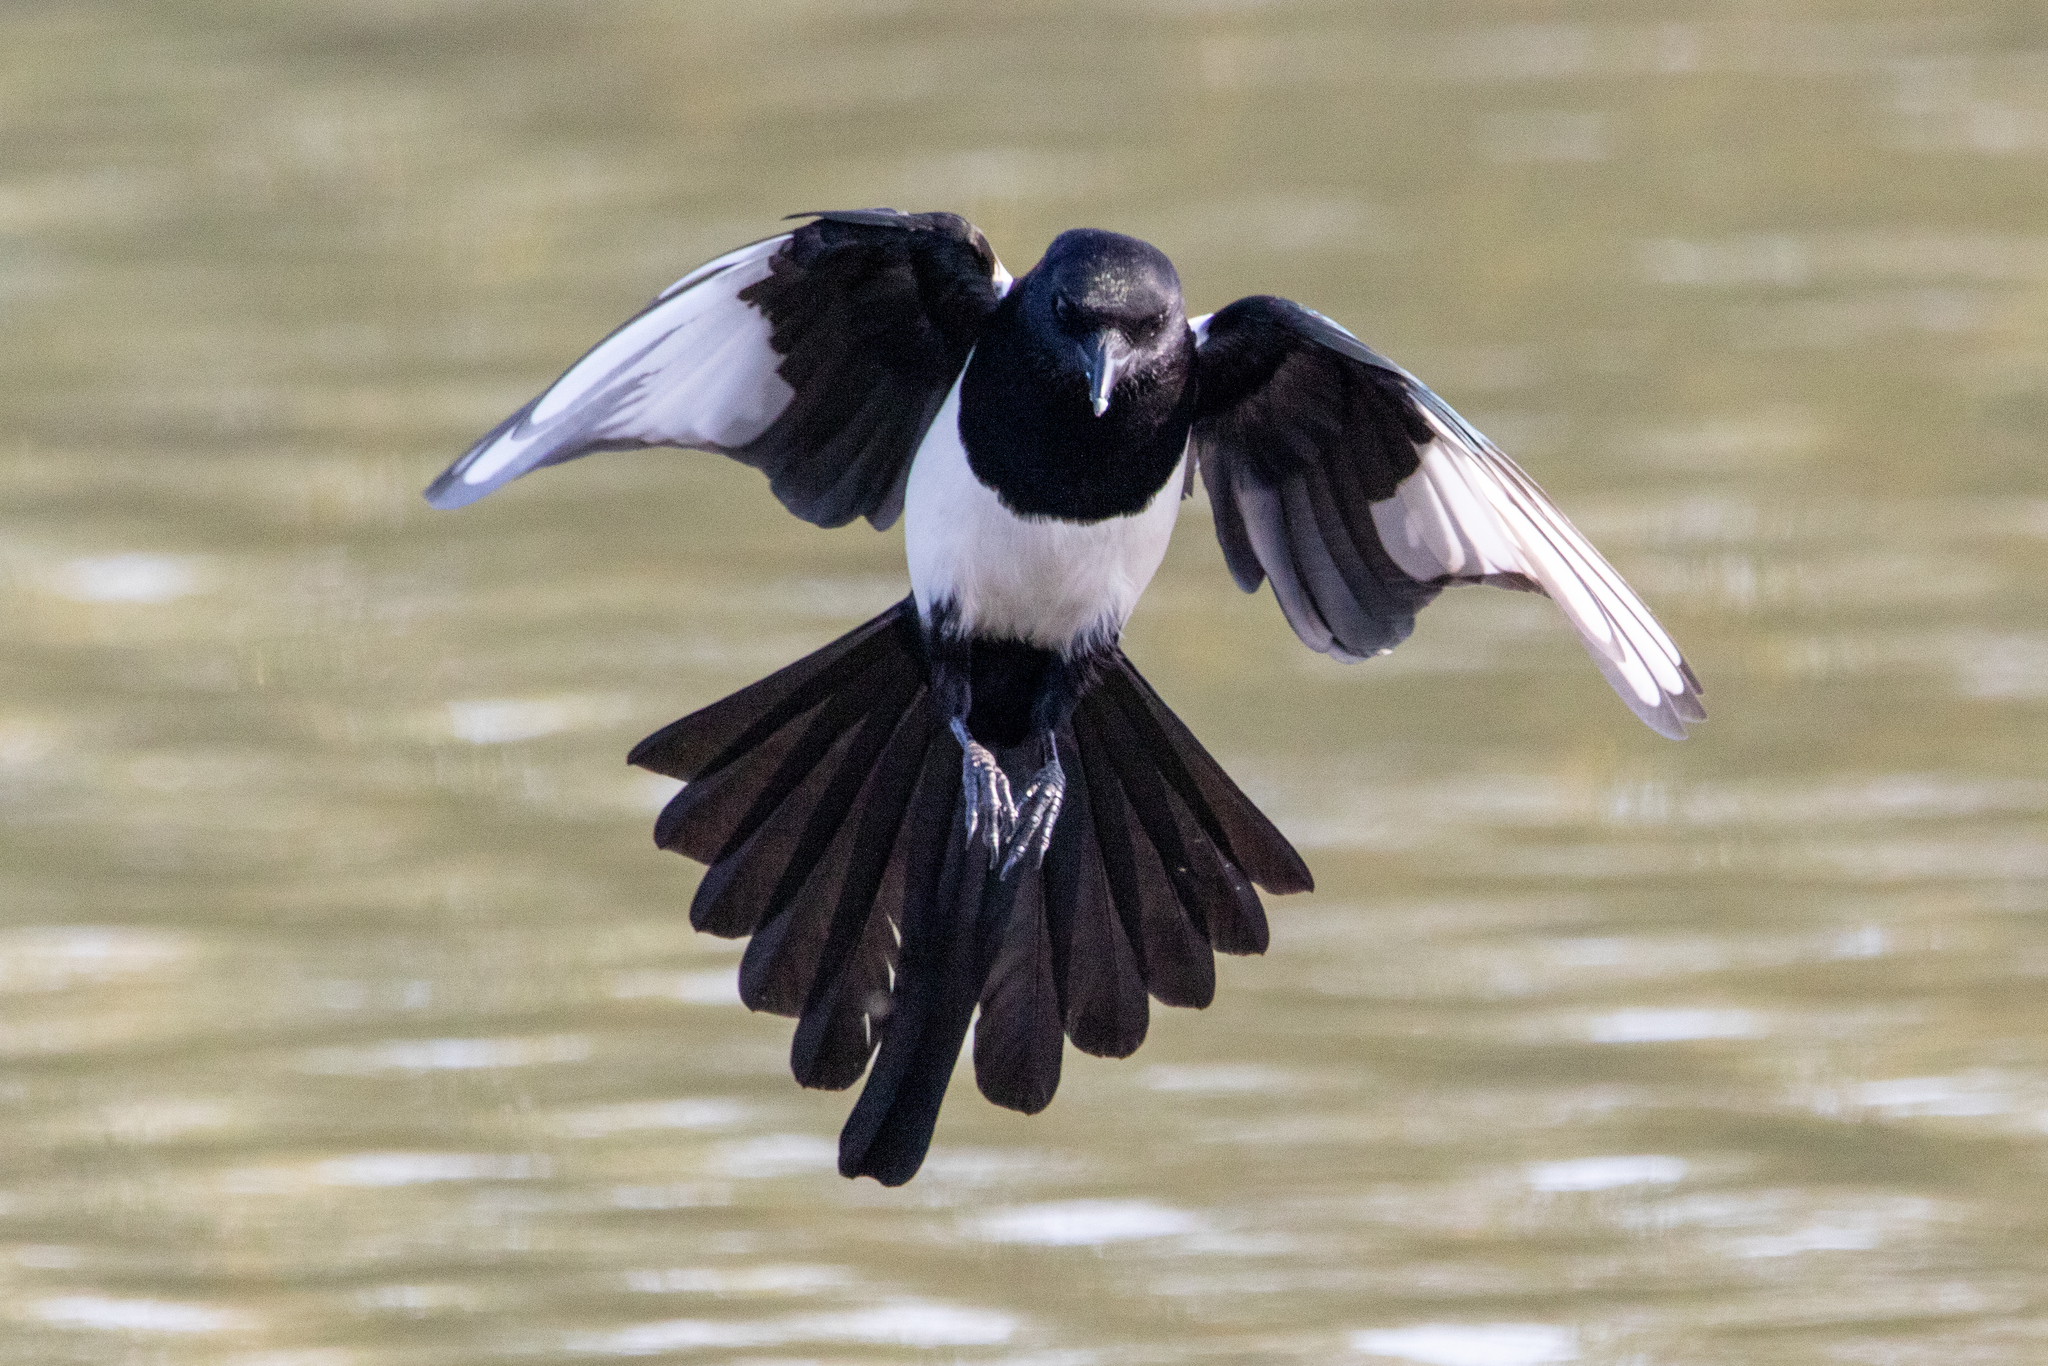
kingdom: Animalia
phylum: Chordata
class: Aves
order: Passeriformes
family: Corvidae
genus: Pica
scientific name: Pica pica
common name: Eurasian magpie
